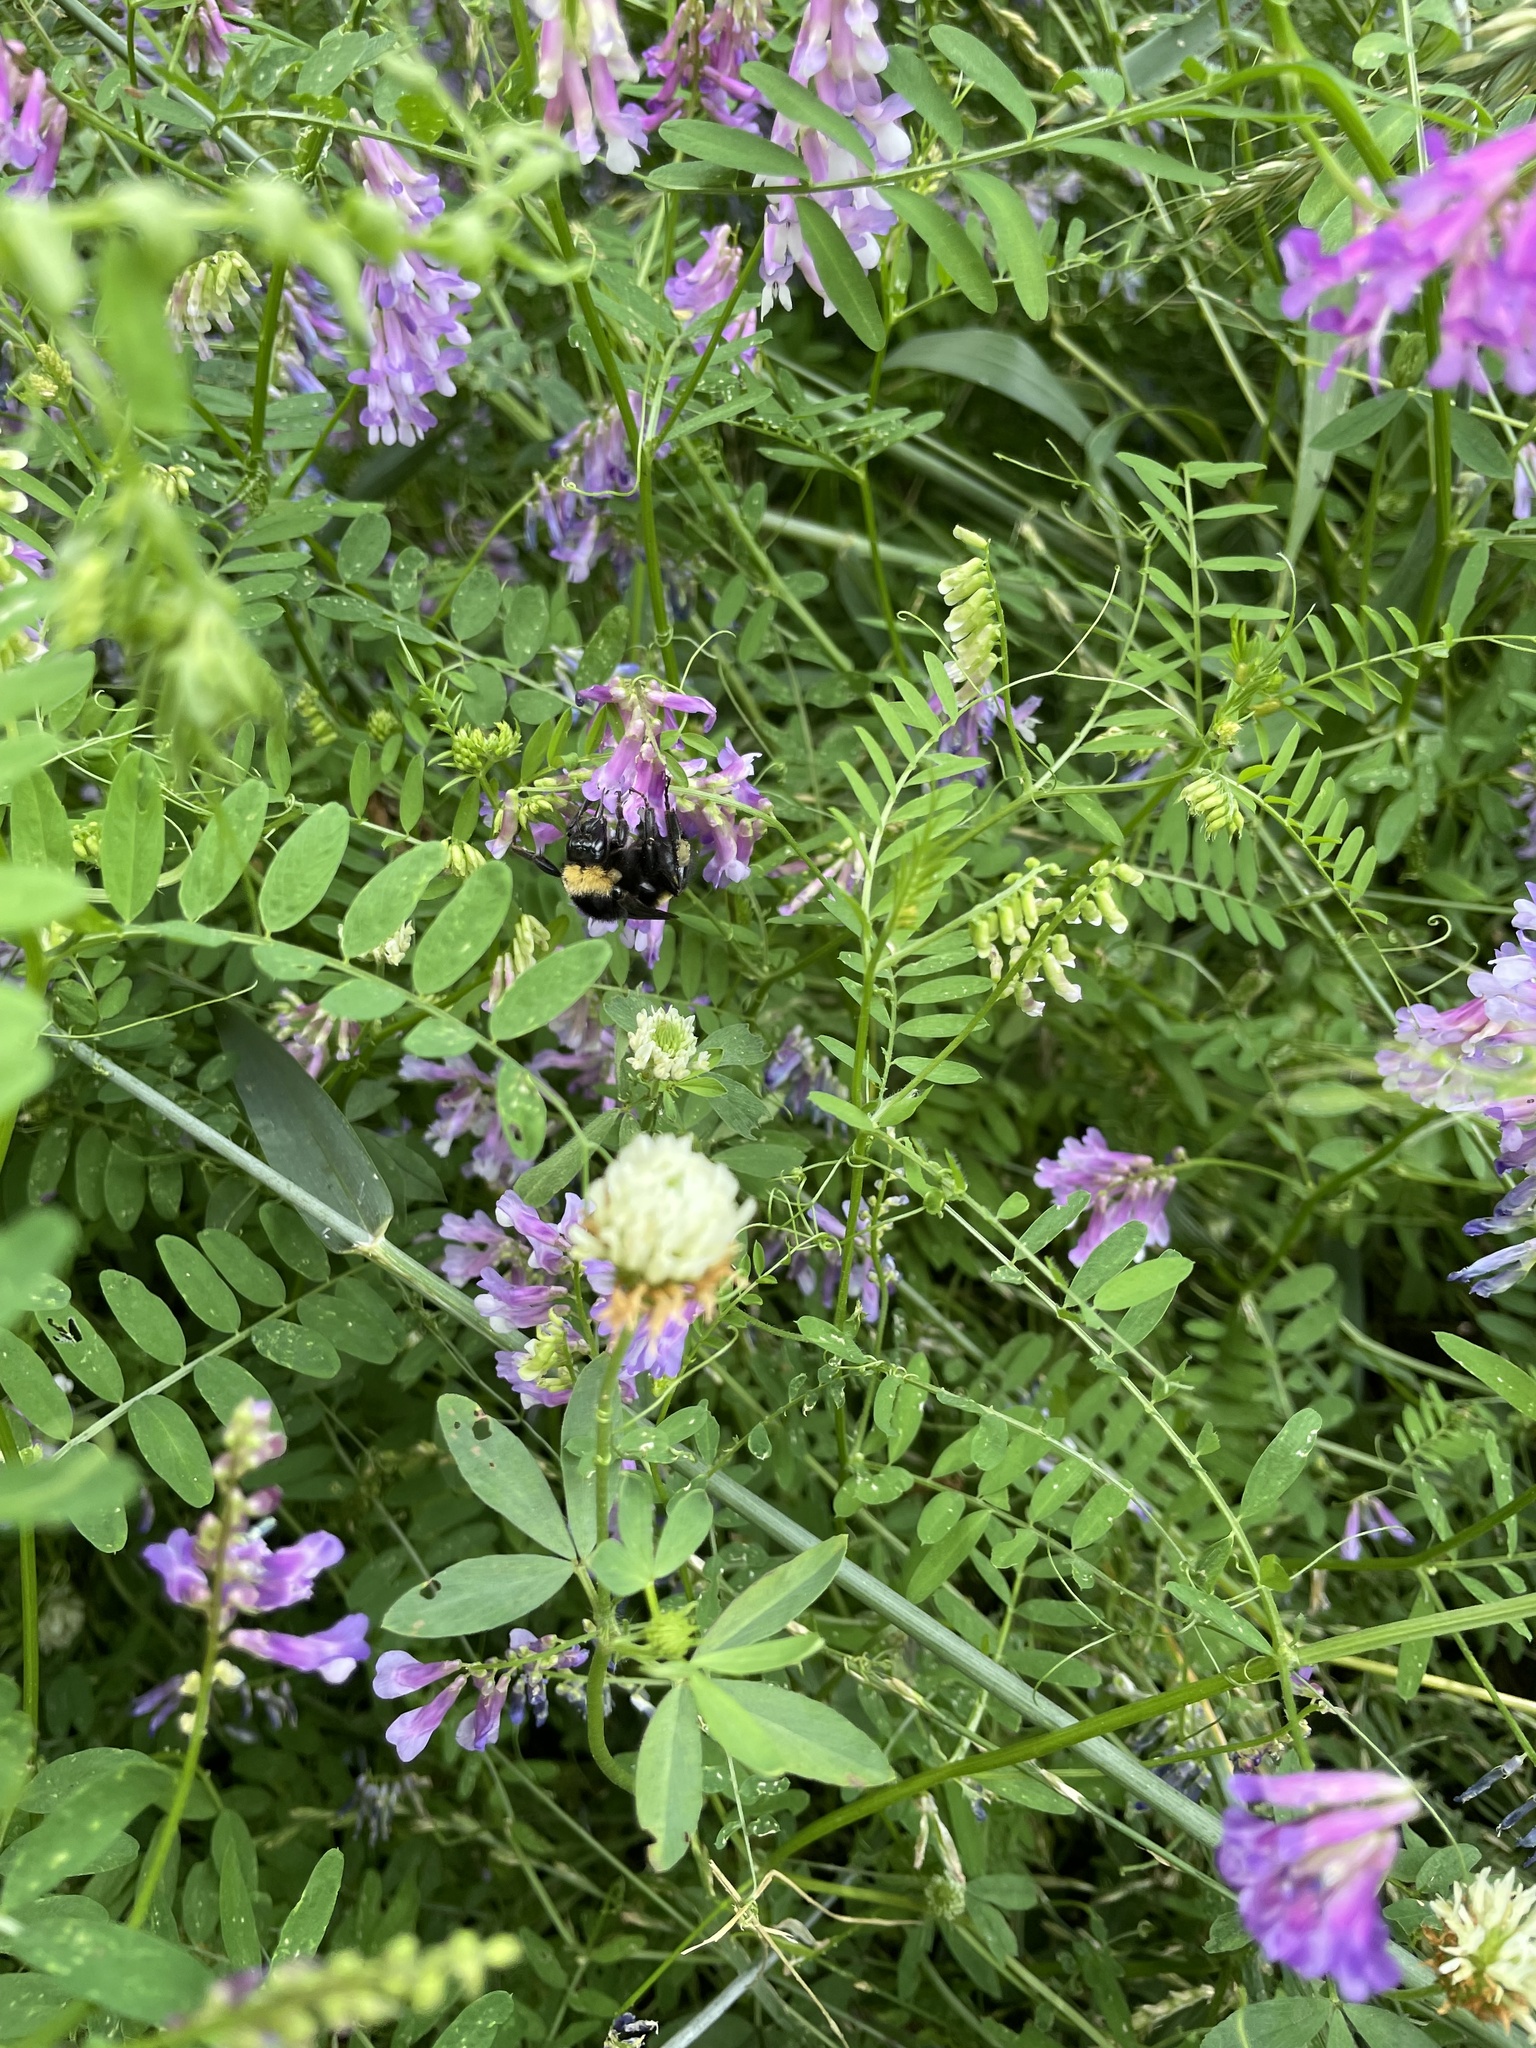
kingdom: Animalia
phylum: Arthropoda
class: Insecta
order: Hymenoptera
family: Apidae
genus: Bombus
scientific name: Bombus pensylvanicus
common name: Bumble bee
